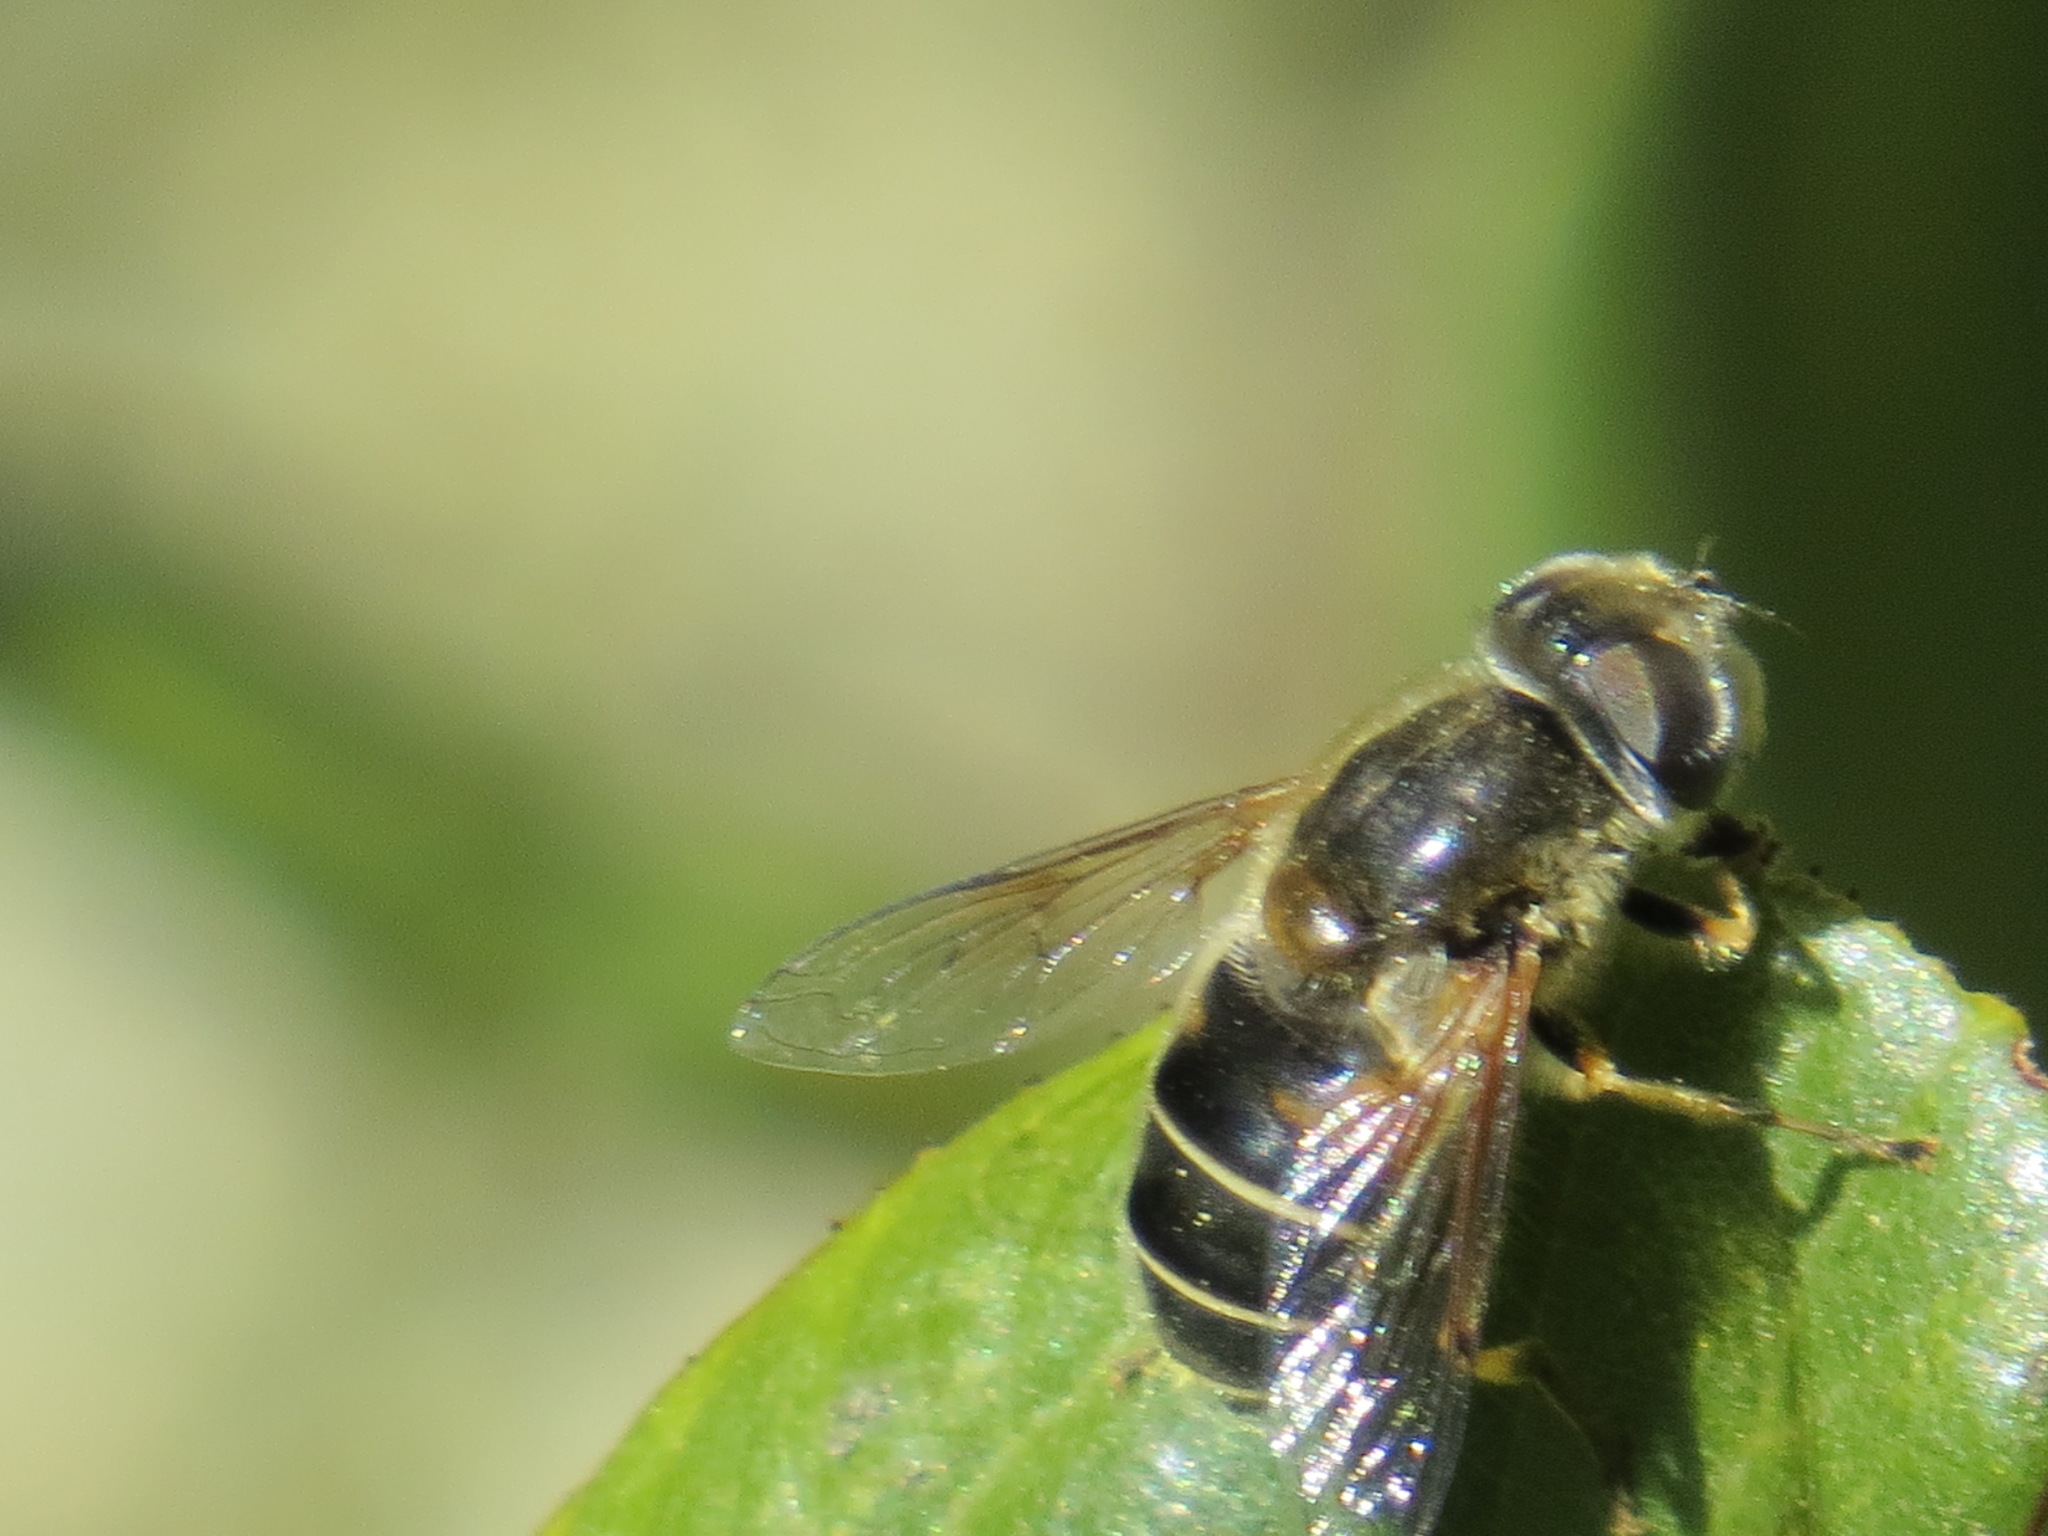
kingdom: Animalia
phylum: Arthropoda
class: Insecta
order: Diptera
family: Syrphidae
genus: Eristalis
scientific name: Eristalis hirta
